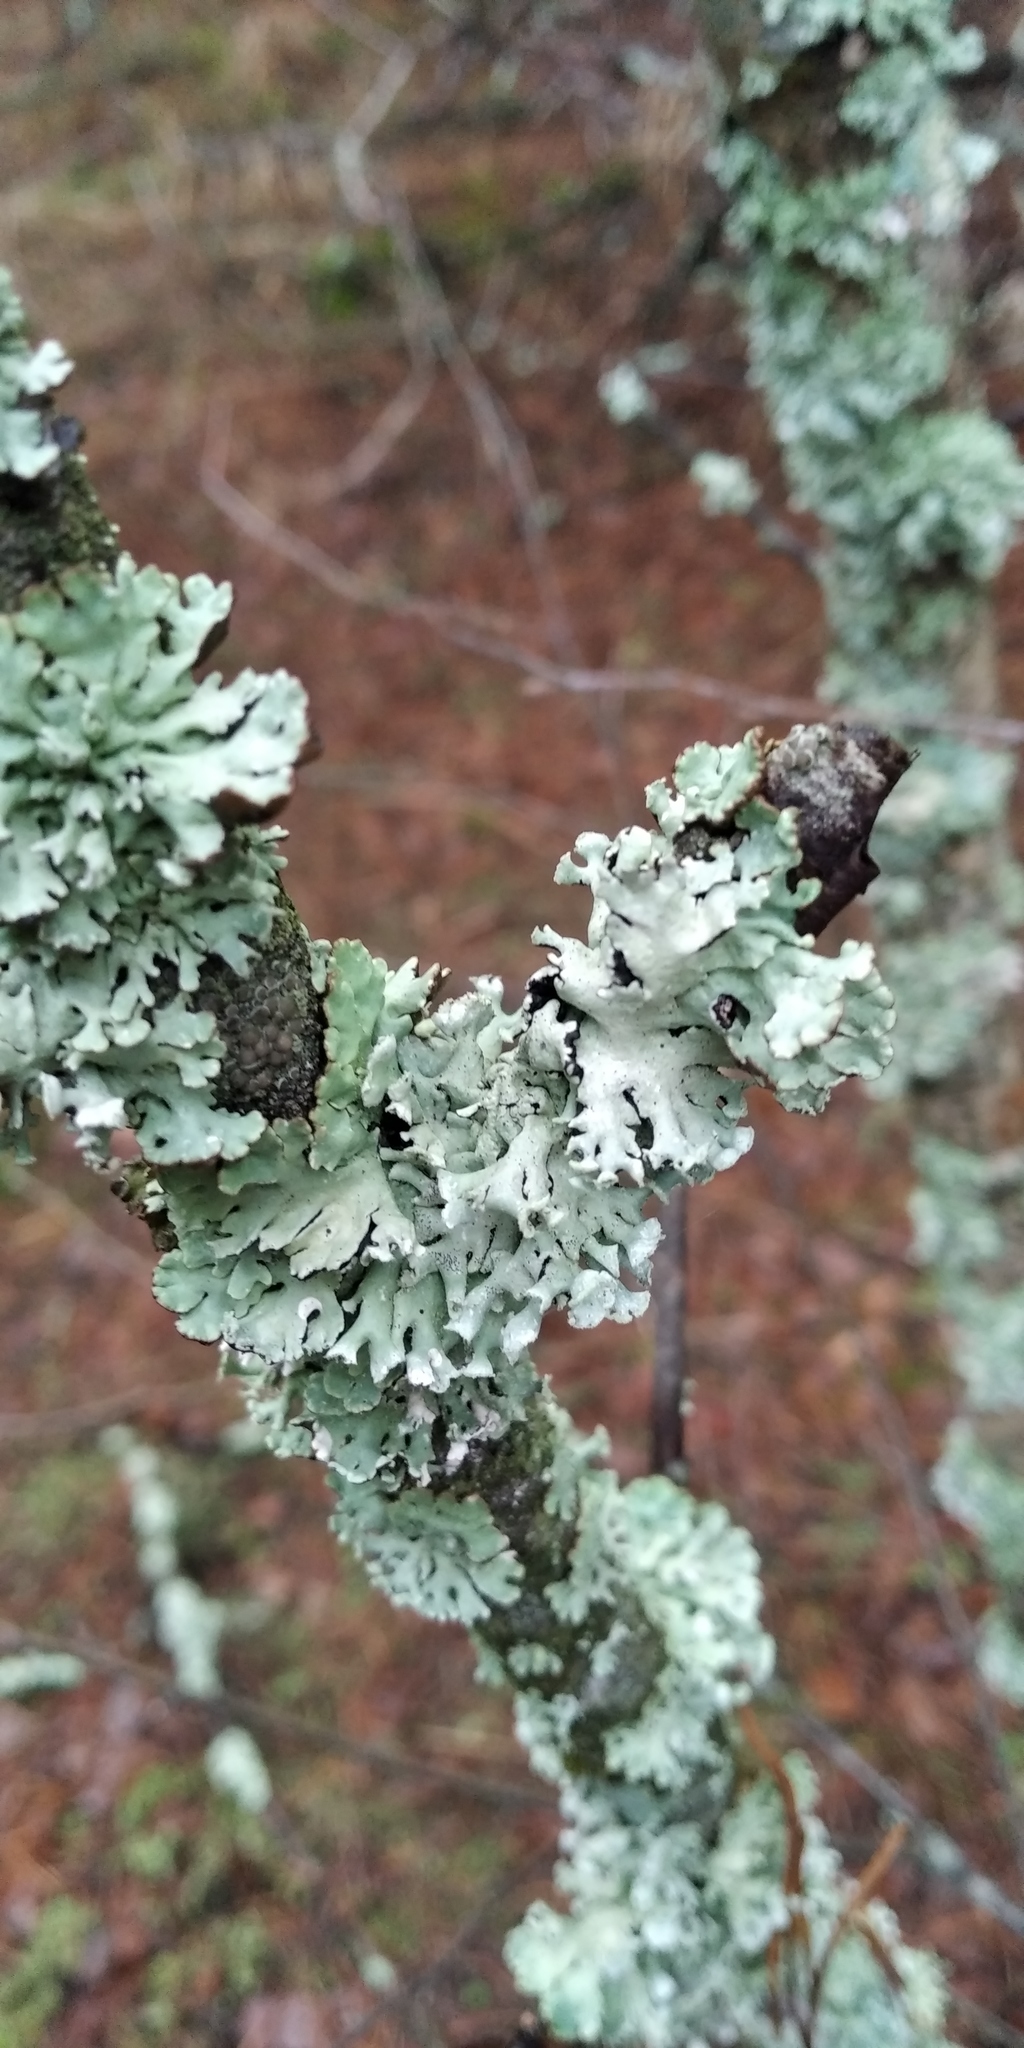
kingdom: Fungi
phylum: Ascomycota
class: Lecanoromycetes
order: Lecanorales
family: Parmeliaceae
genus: Hypogymnia
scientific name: Hypogymnia physodes
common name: Dark crottle
